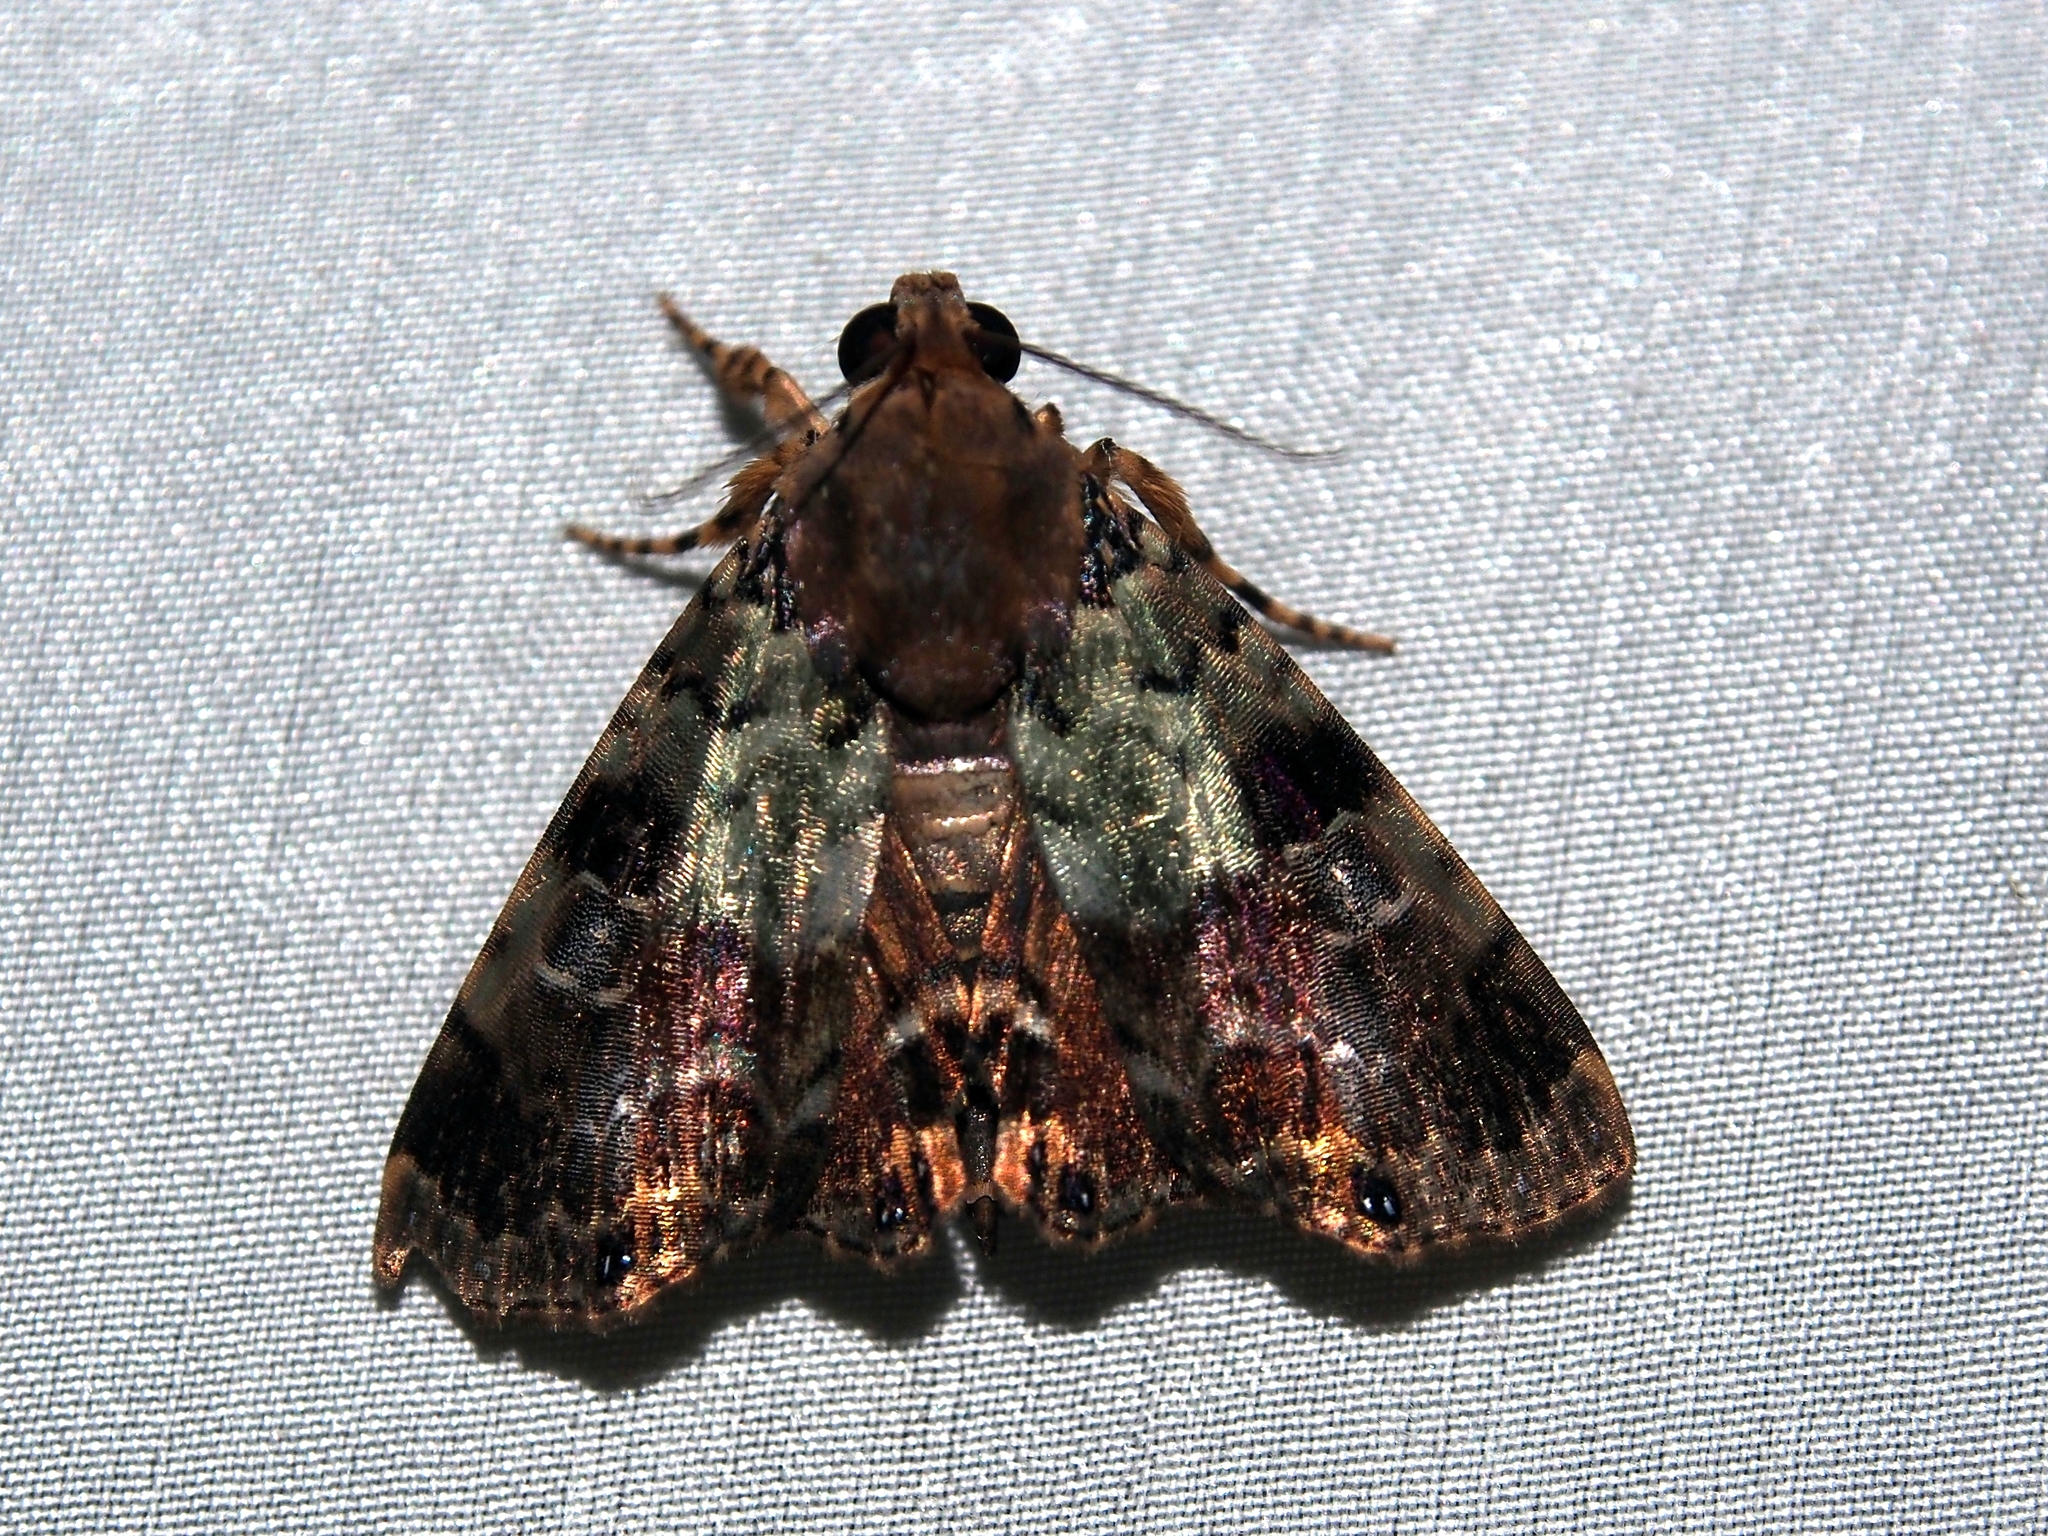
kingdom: Animalia
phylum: Arthropoda
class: Insecta
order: Lepidoptera
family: Erebidae
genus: Dyops
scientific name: Dyops chromatophila
